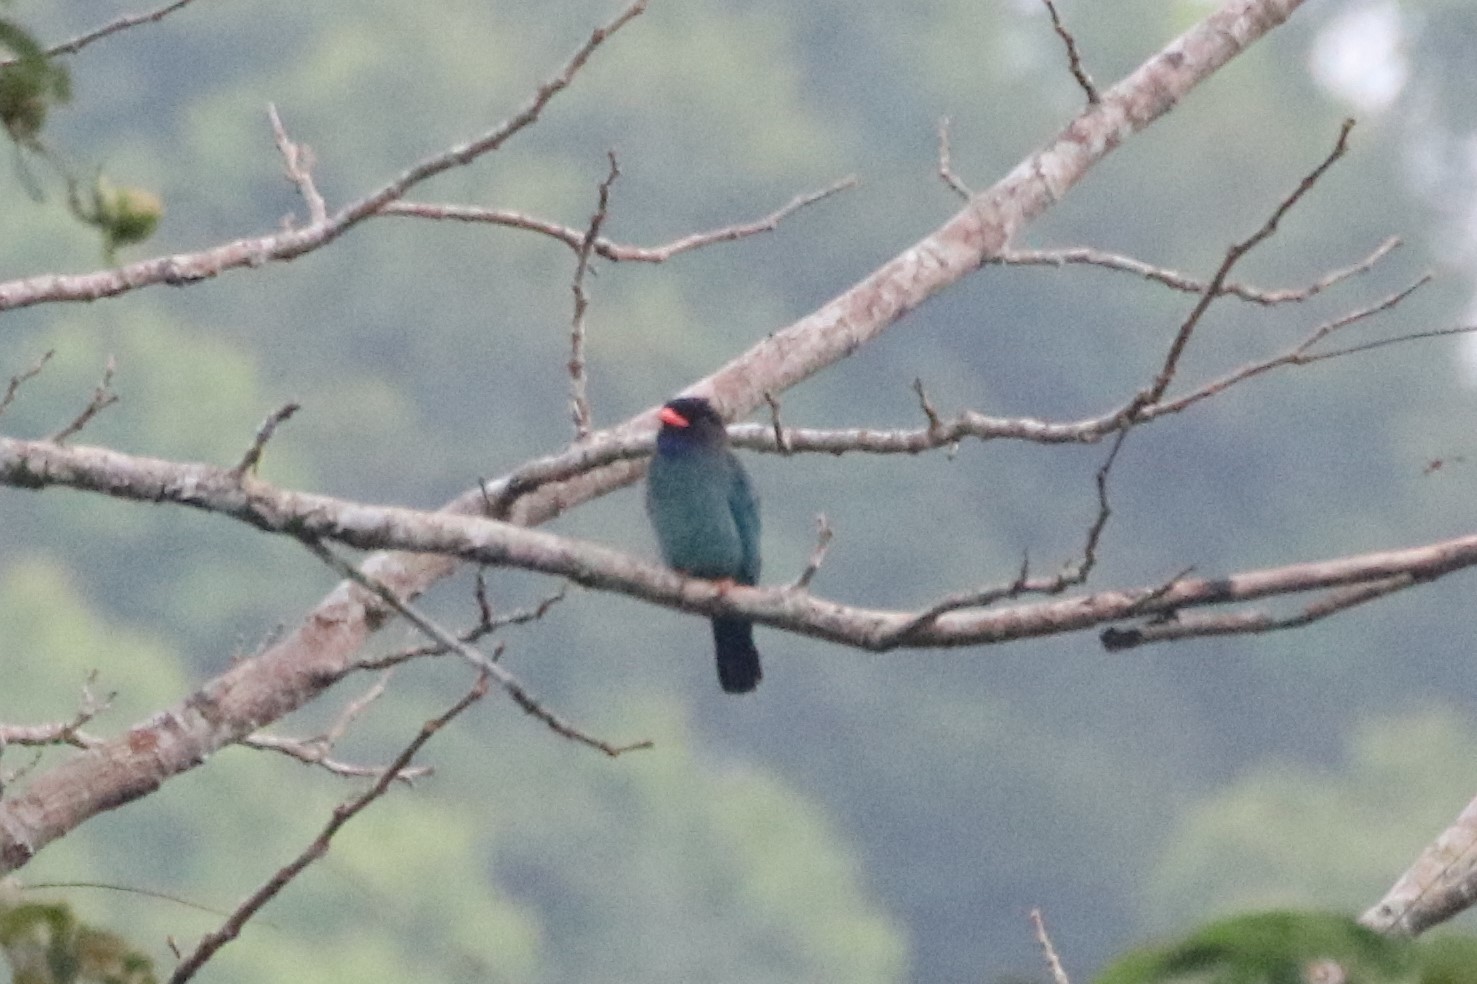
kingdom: Animalia
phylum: Chordata
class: Aves
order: Coraciiformes
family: Coraciidae
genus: Eurystomus
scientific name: Eurystomus orientalis
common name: Oriental dollarbird
